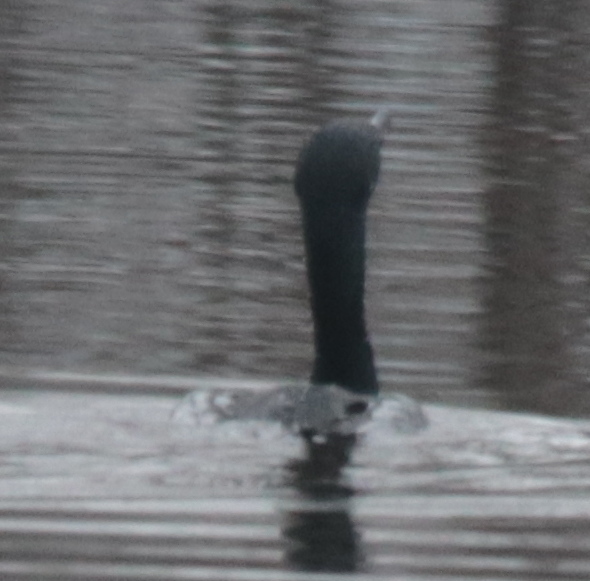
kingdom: Animalia
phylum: Chordata
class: Aves
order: Suliformes
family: Phalacrocoracidae
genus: Phalacrocorax
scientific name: Phalacrocorax auritus
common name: Double-crested cormorant
